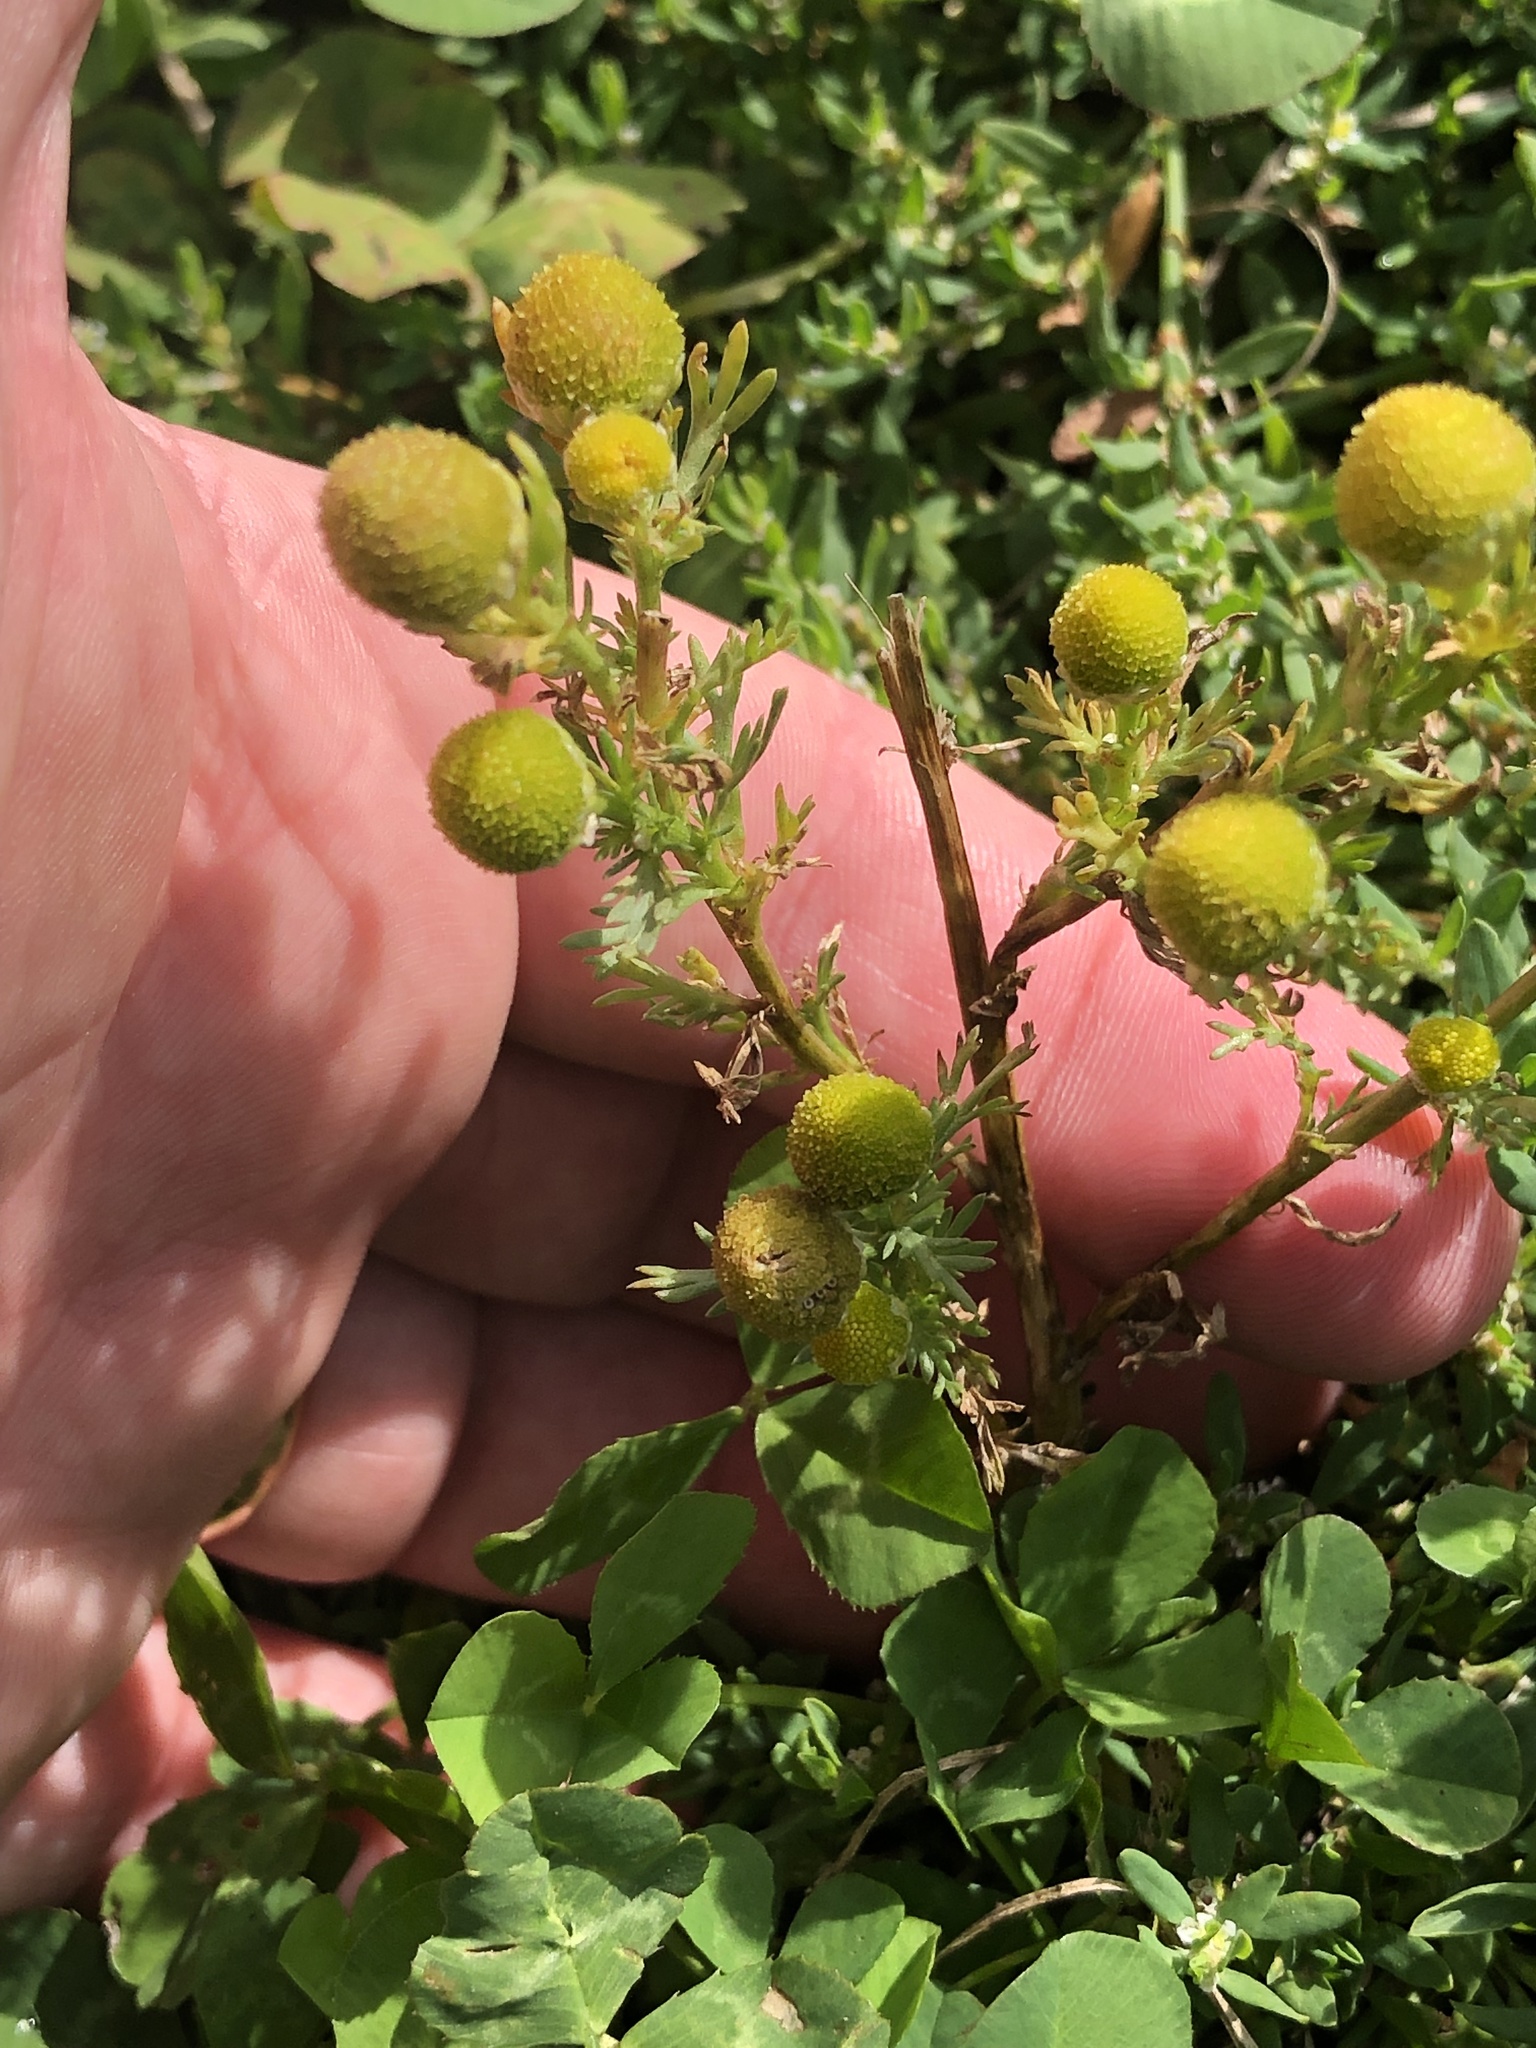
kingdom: Plantae
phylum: Tracheophyta
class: Magnoliopsida
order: Asterales
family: Asteraceae
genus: Matricaria
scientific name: Matricaria discoidea
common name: Disc mayweed
